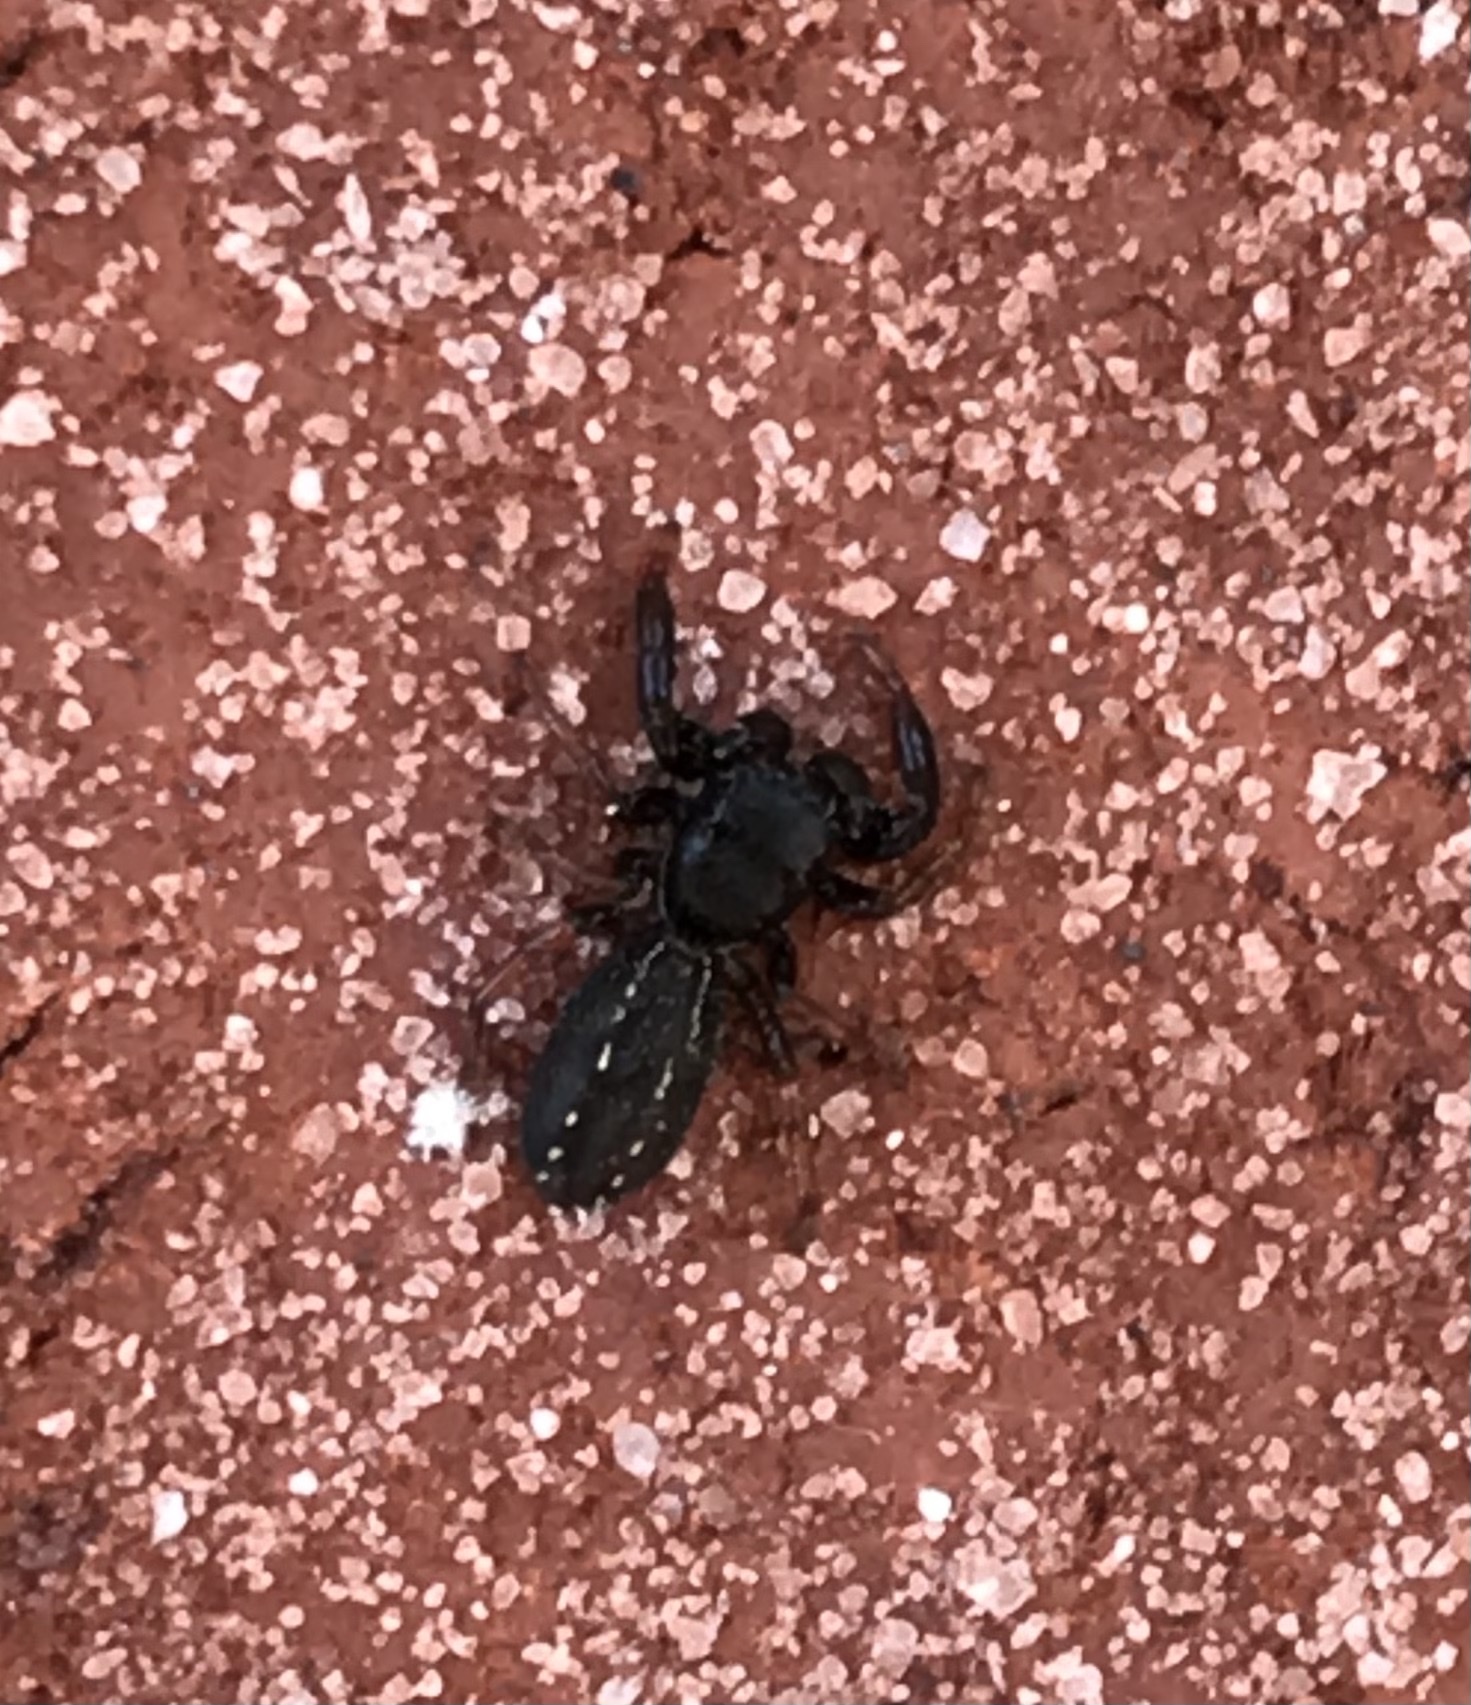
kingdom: Animalia
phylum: Arthropoda
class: Arachnida
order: Araneae
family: Salticidae
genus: Metacyrba
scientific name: Metacyrba taeniola
